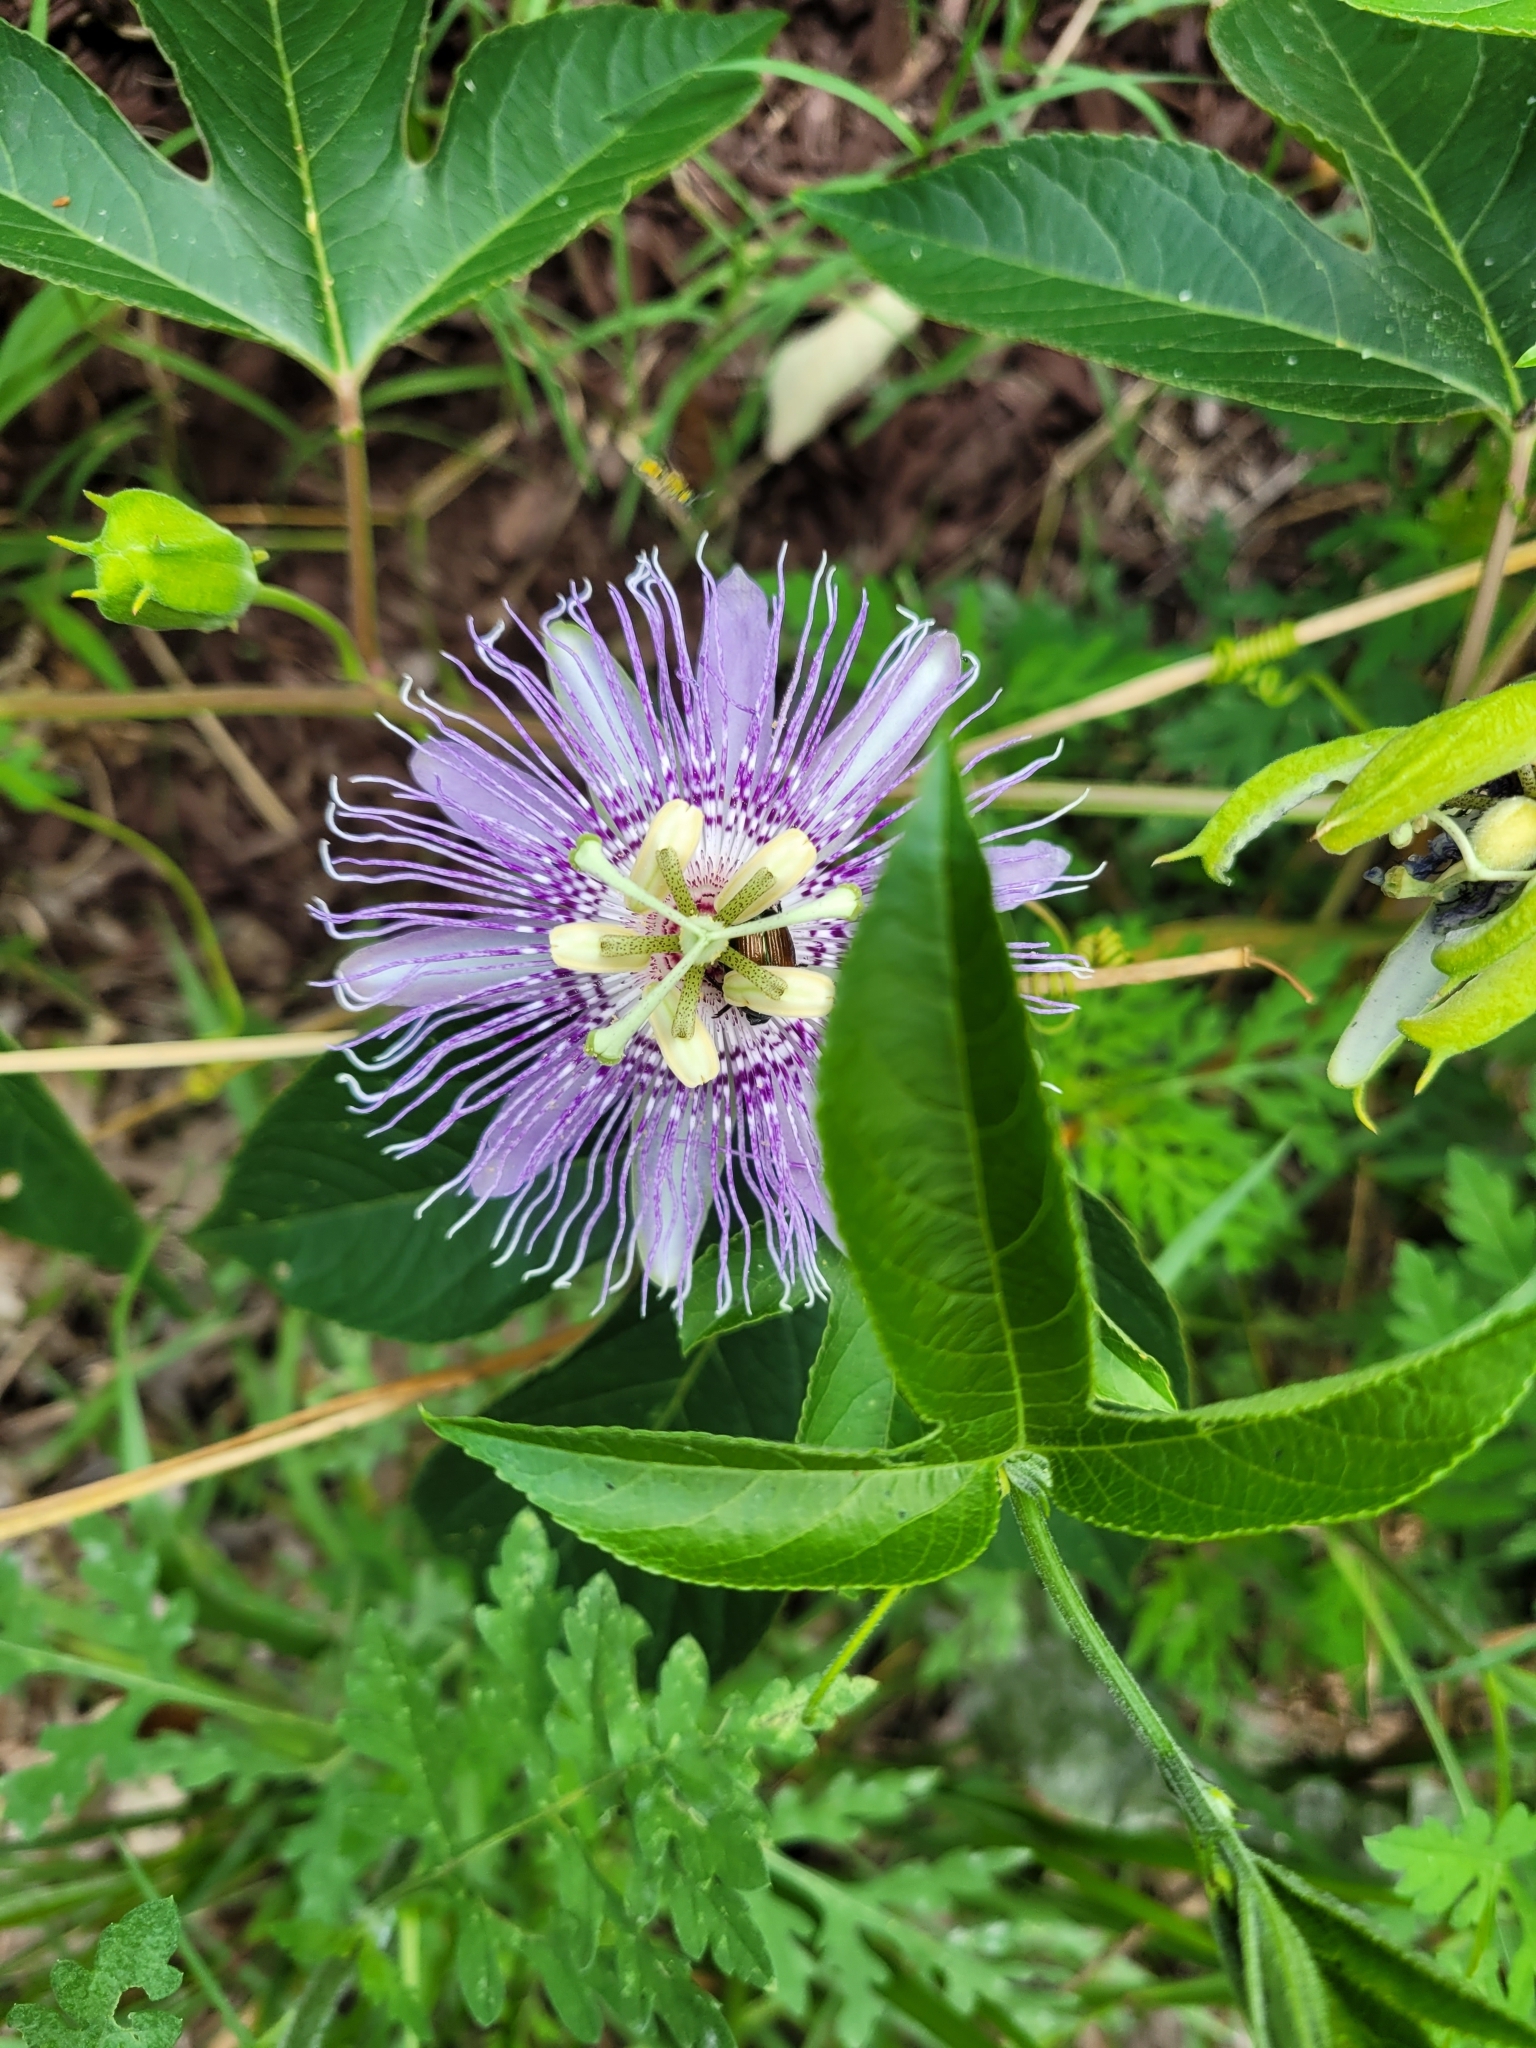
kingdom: Plantae
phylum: Tracheophyta
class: Magnoliopsida
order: Malpighiales
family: Passifloraceae
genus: Passiflora
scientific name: Passiflora incarnata
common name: Apricot-vine
